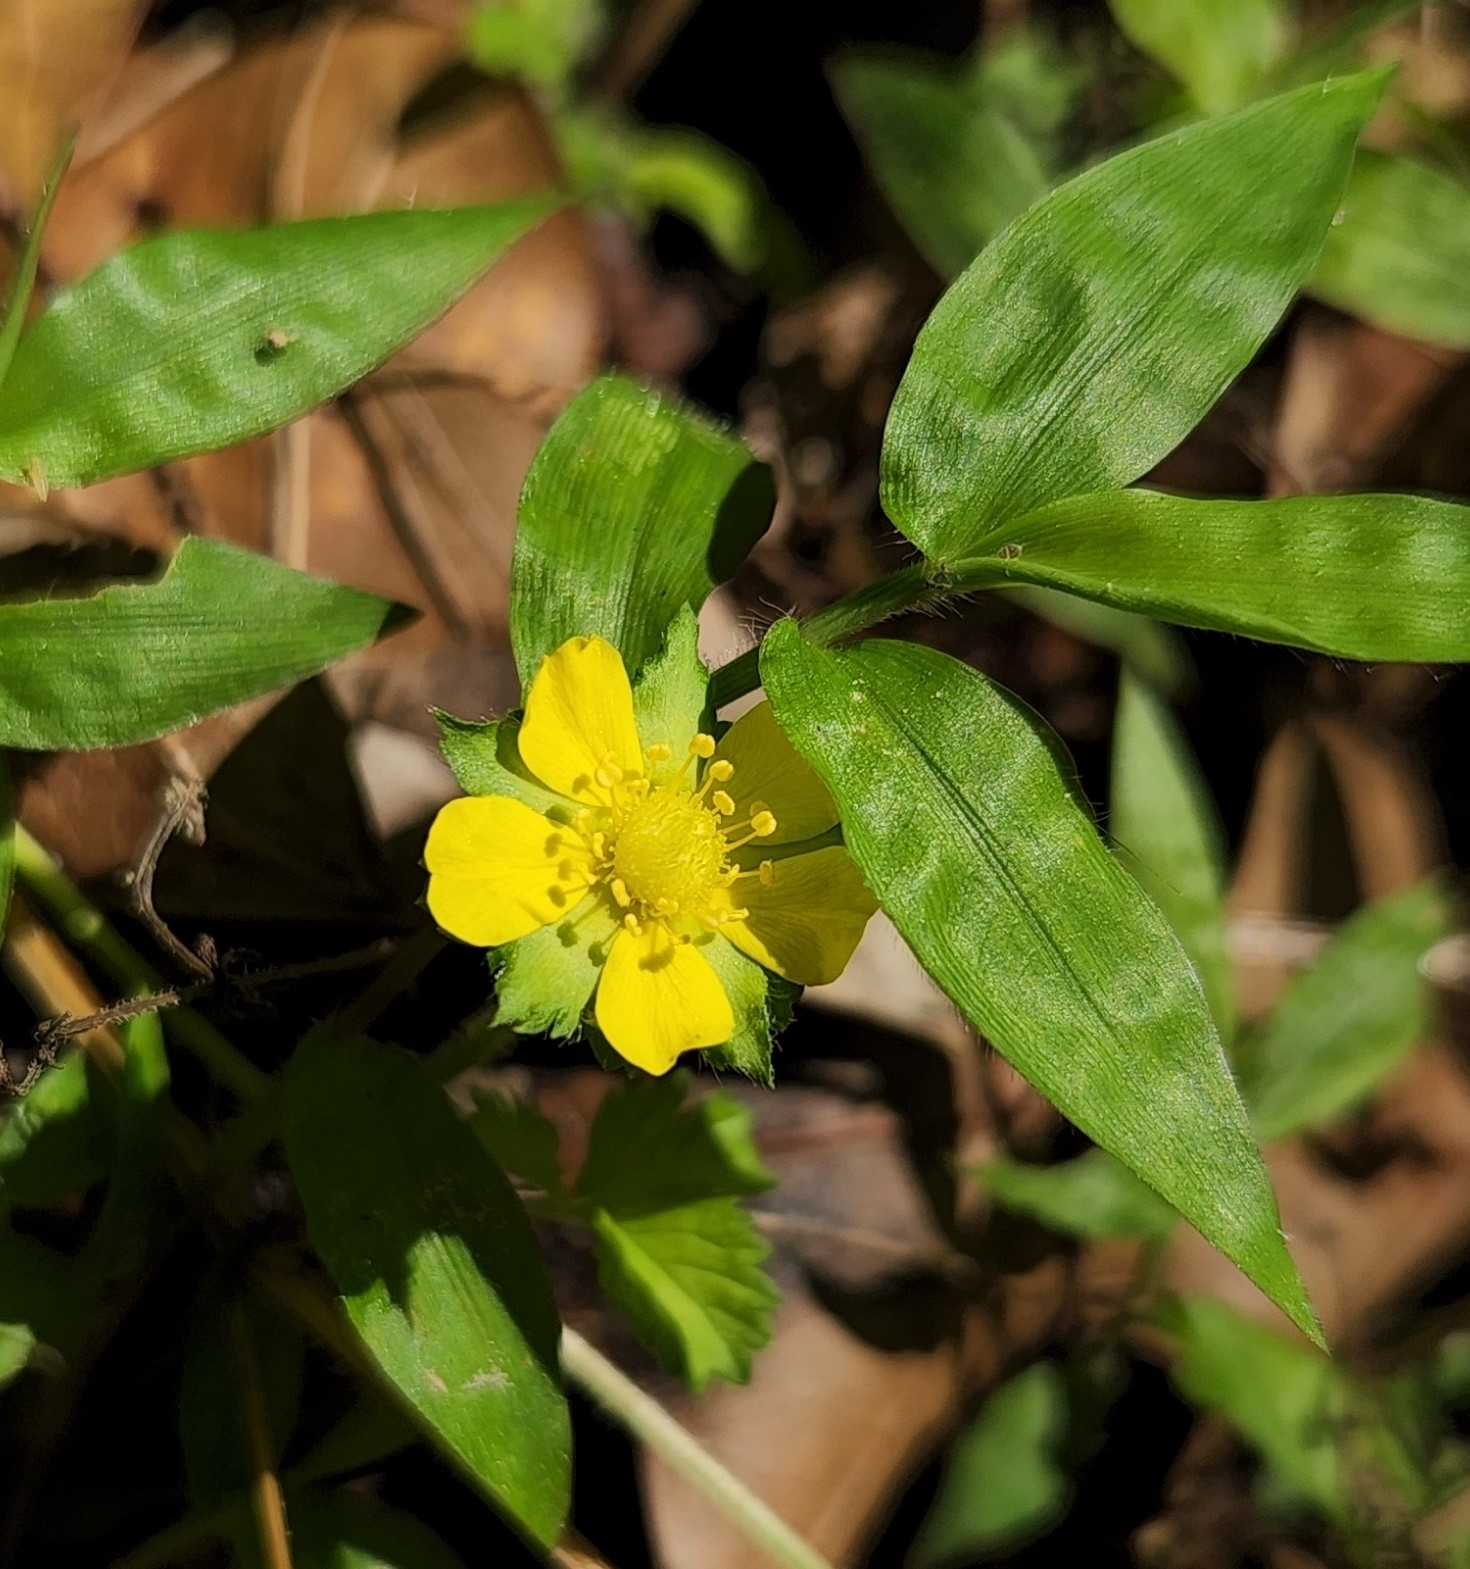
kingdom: Plantae
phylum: Tracheophyta
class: Magnoliopsida
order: Rosales
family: Rosaceae
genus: Potentilla
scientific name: Potentilla indica
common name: Yellow-flowered strawberry
